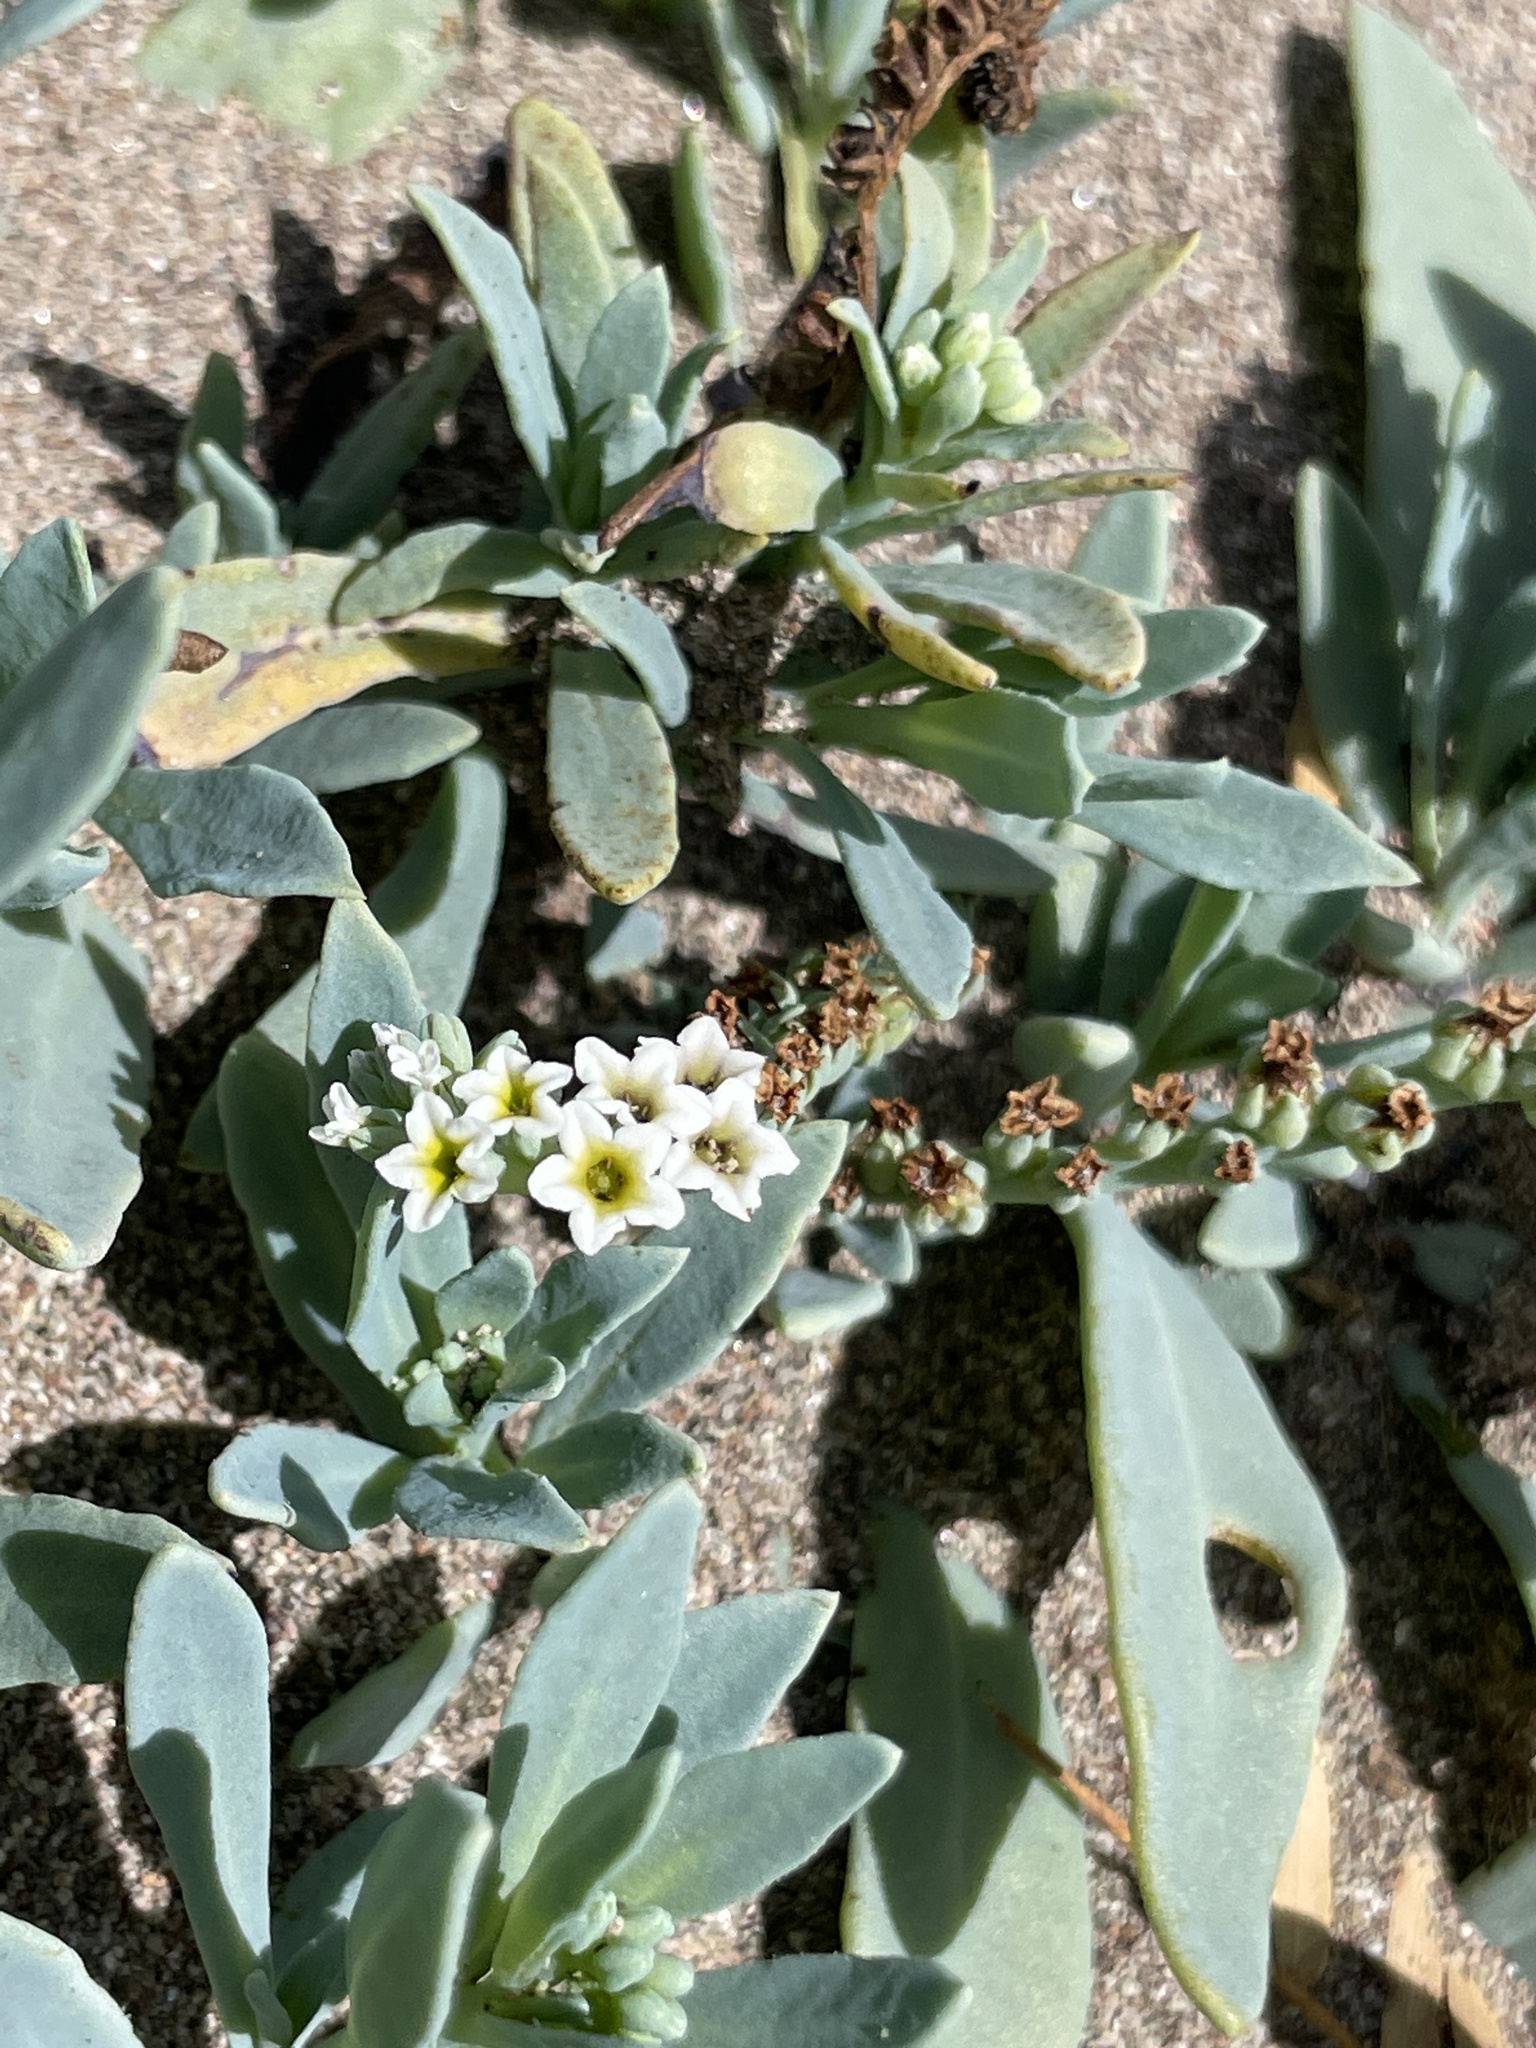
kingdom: Plantae
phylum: Tracheophyta
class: Magnoliopsida
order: Boraginales
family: Heliotropiaceae
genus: Heliotropium
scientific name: Heliotropium curassavicum
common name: Seaside heliotrope
